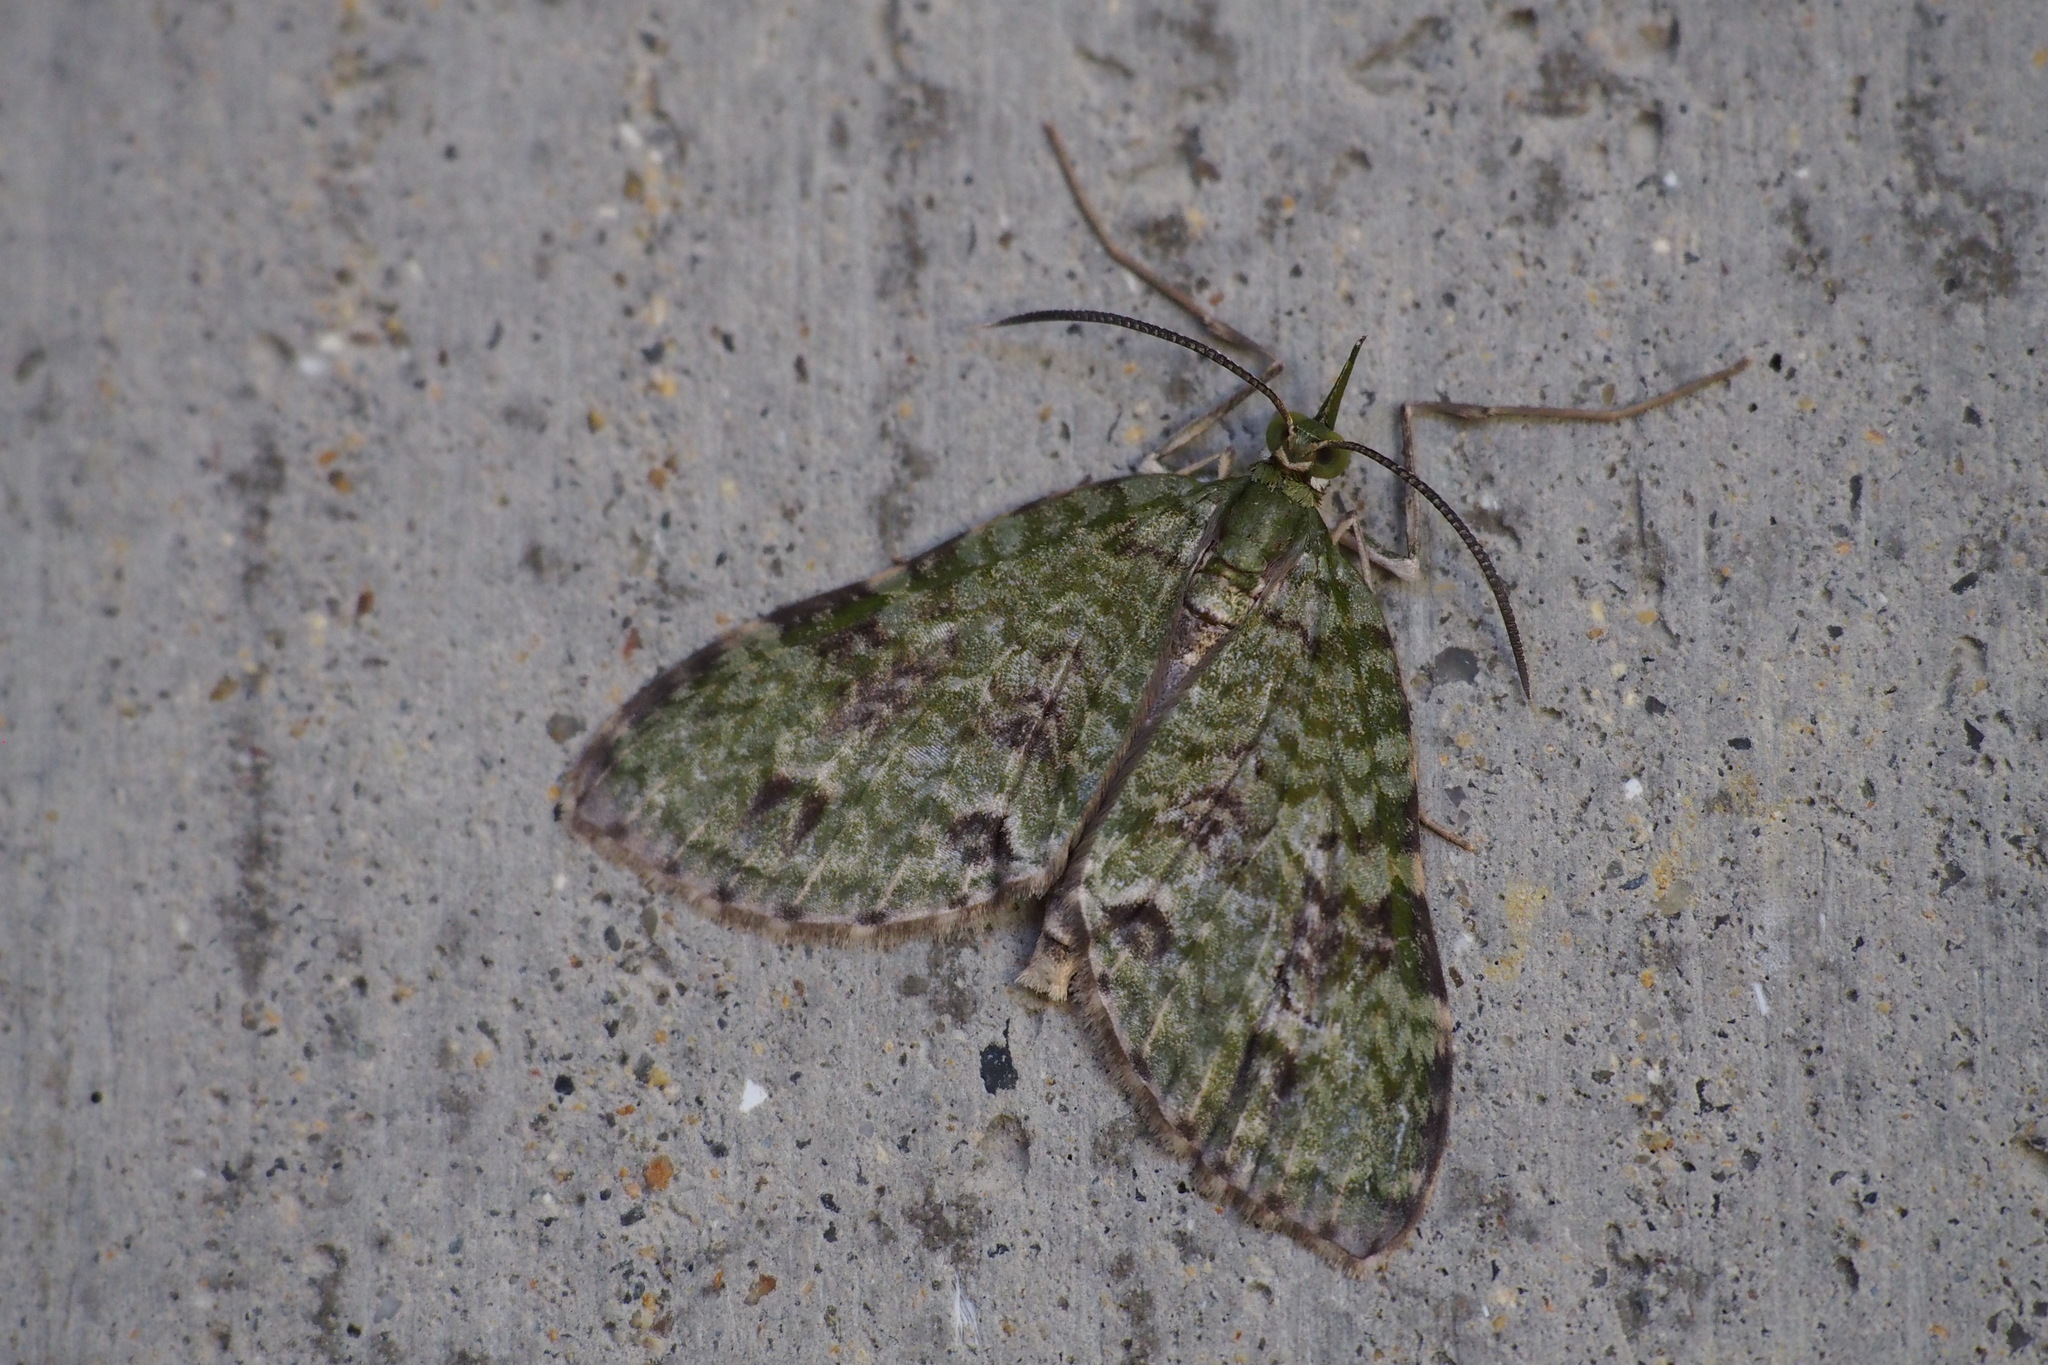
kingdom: Animalia
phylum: Arthropoda
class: Insecta
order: Lepidoptera
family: Geometridae
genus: Sauris
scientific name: Sauris marginepunctata
